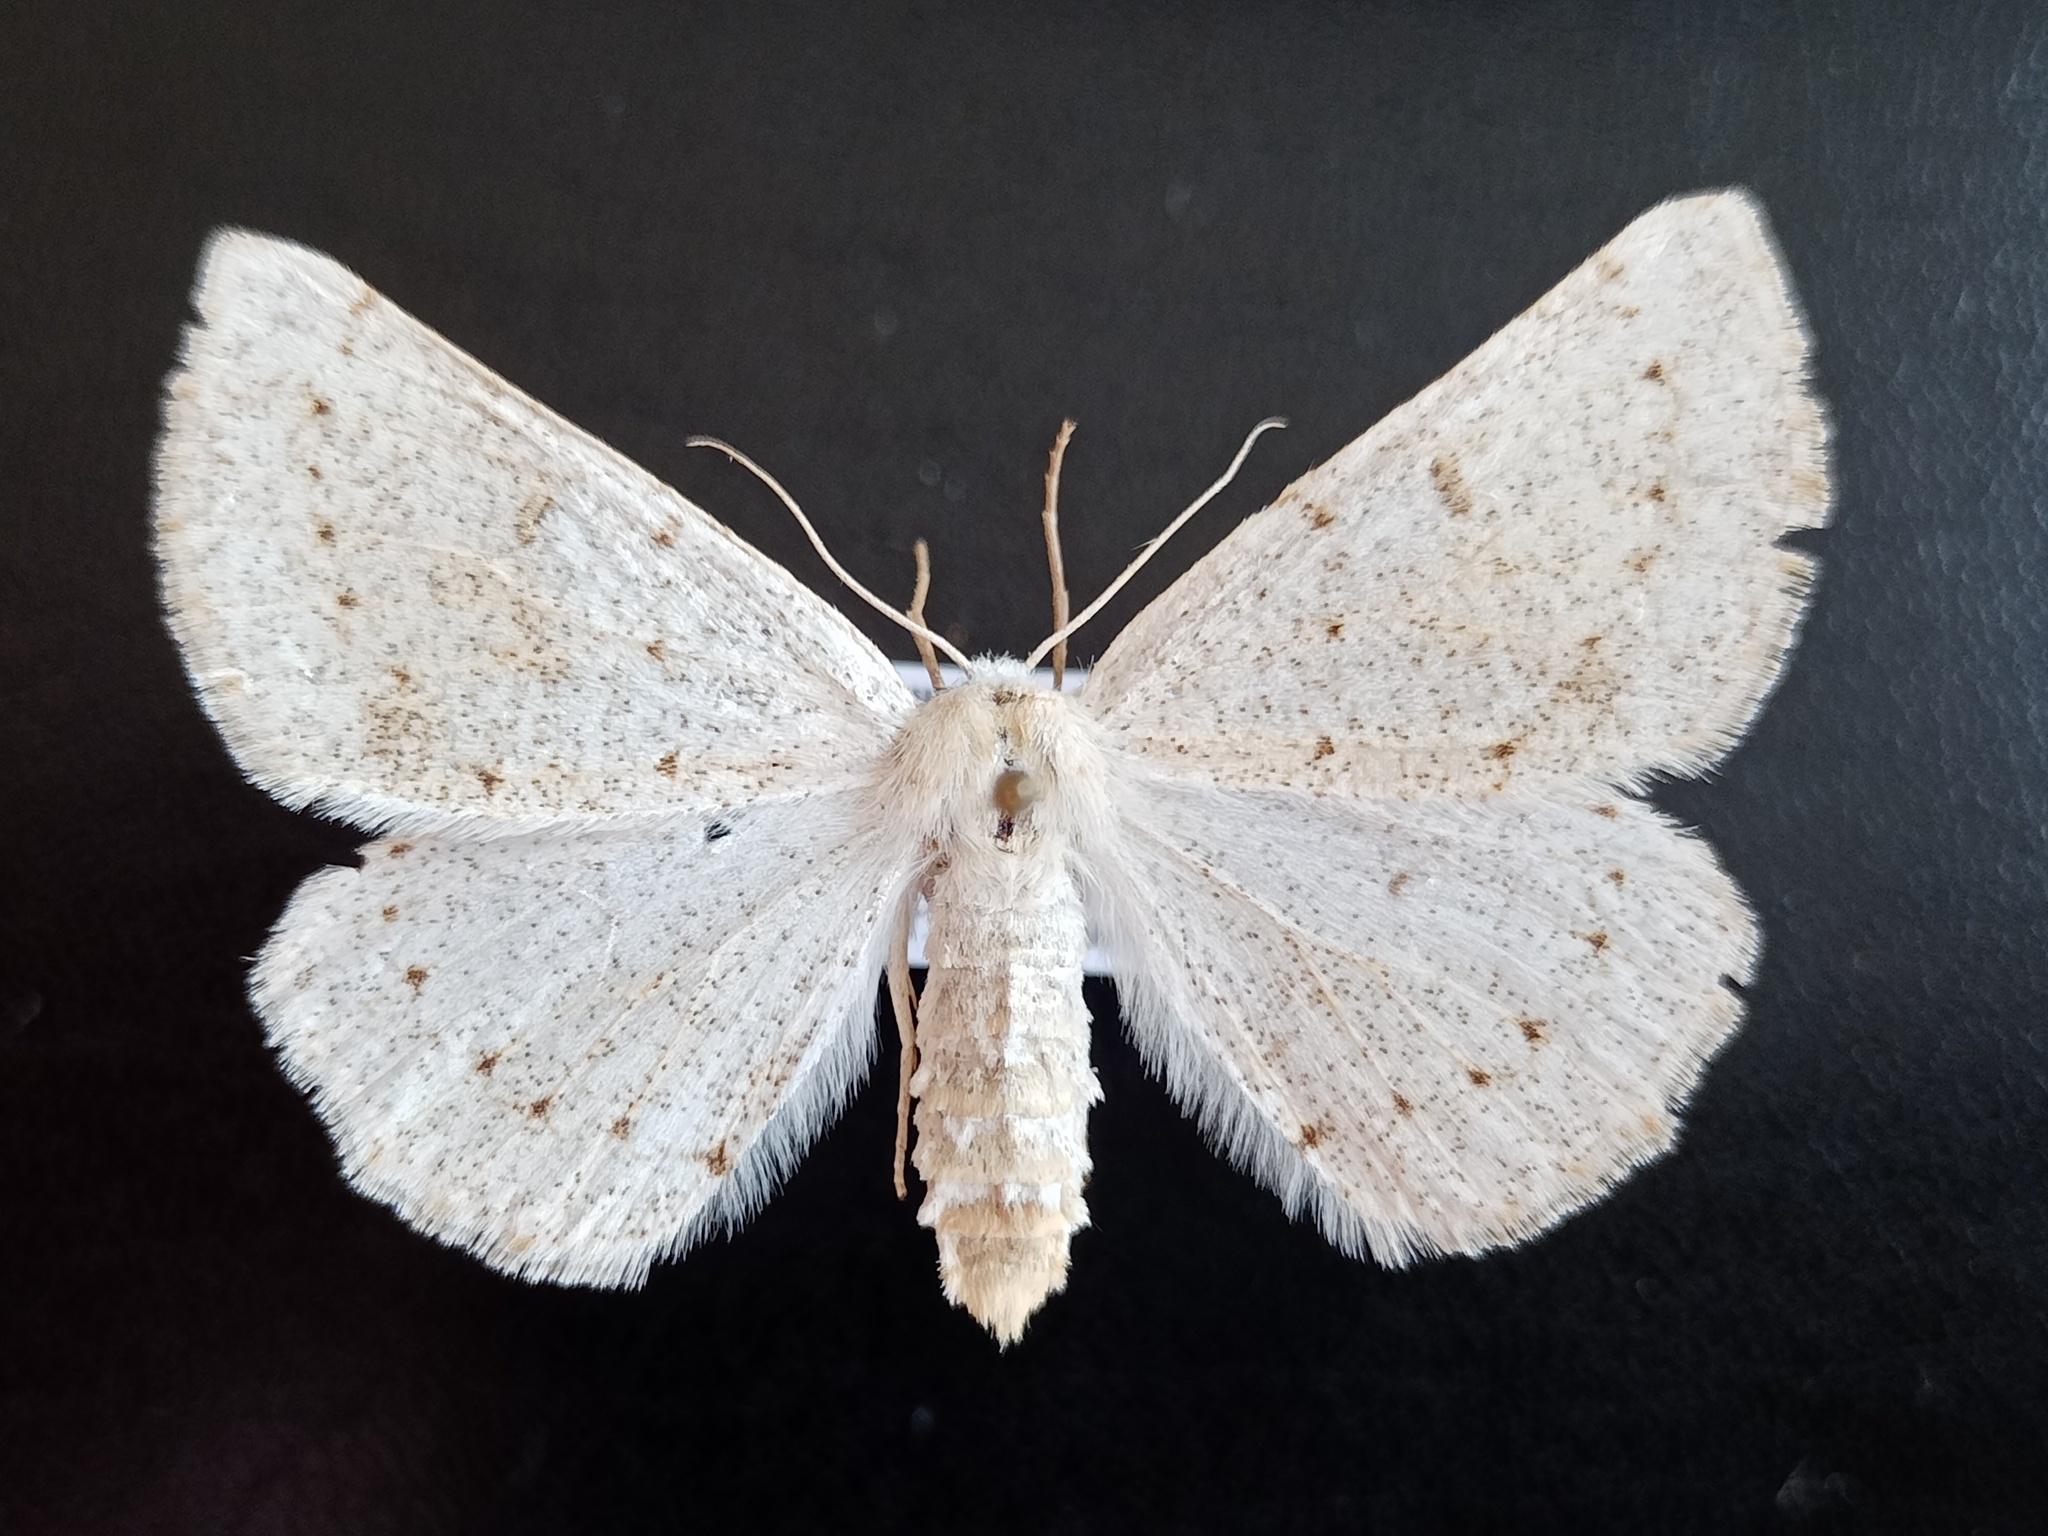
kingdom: Animalia
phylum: Arthropoda
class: Insecta
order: Lepidoptera
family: Geometridae
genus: Dyscia
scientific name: Dyscia conspersaria
